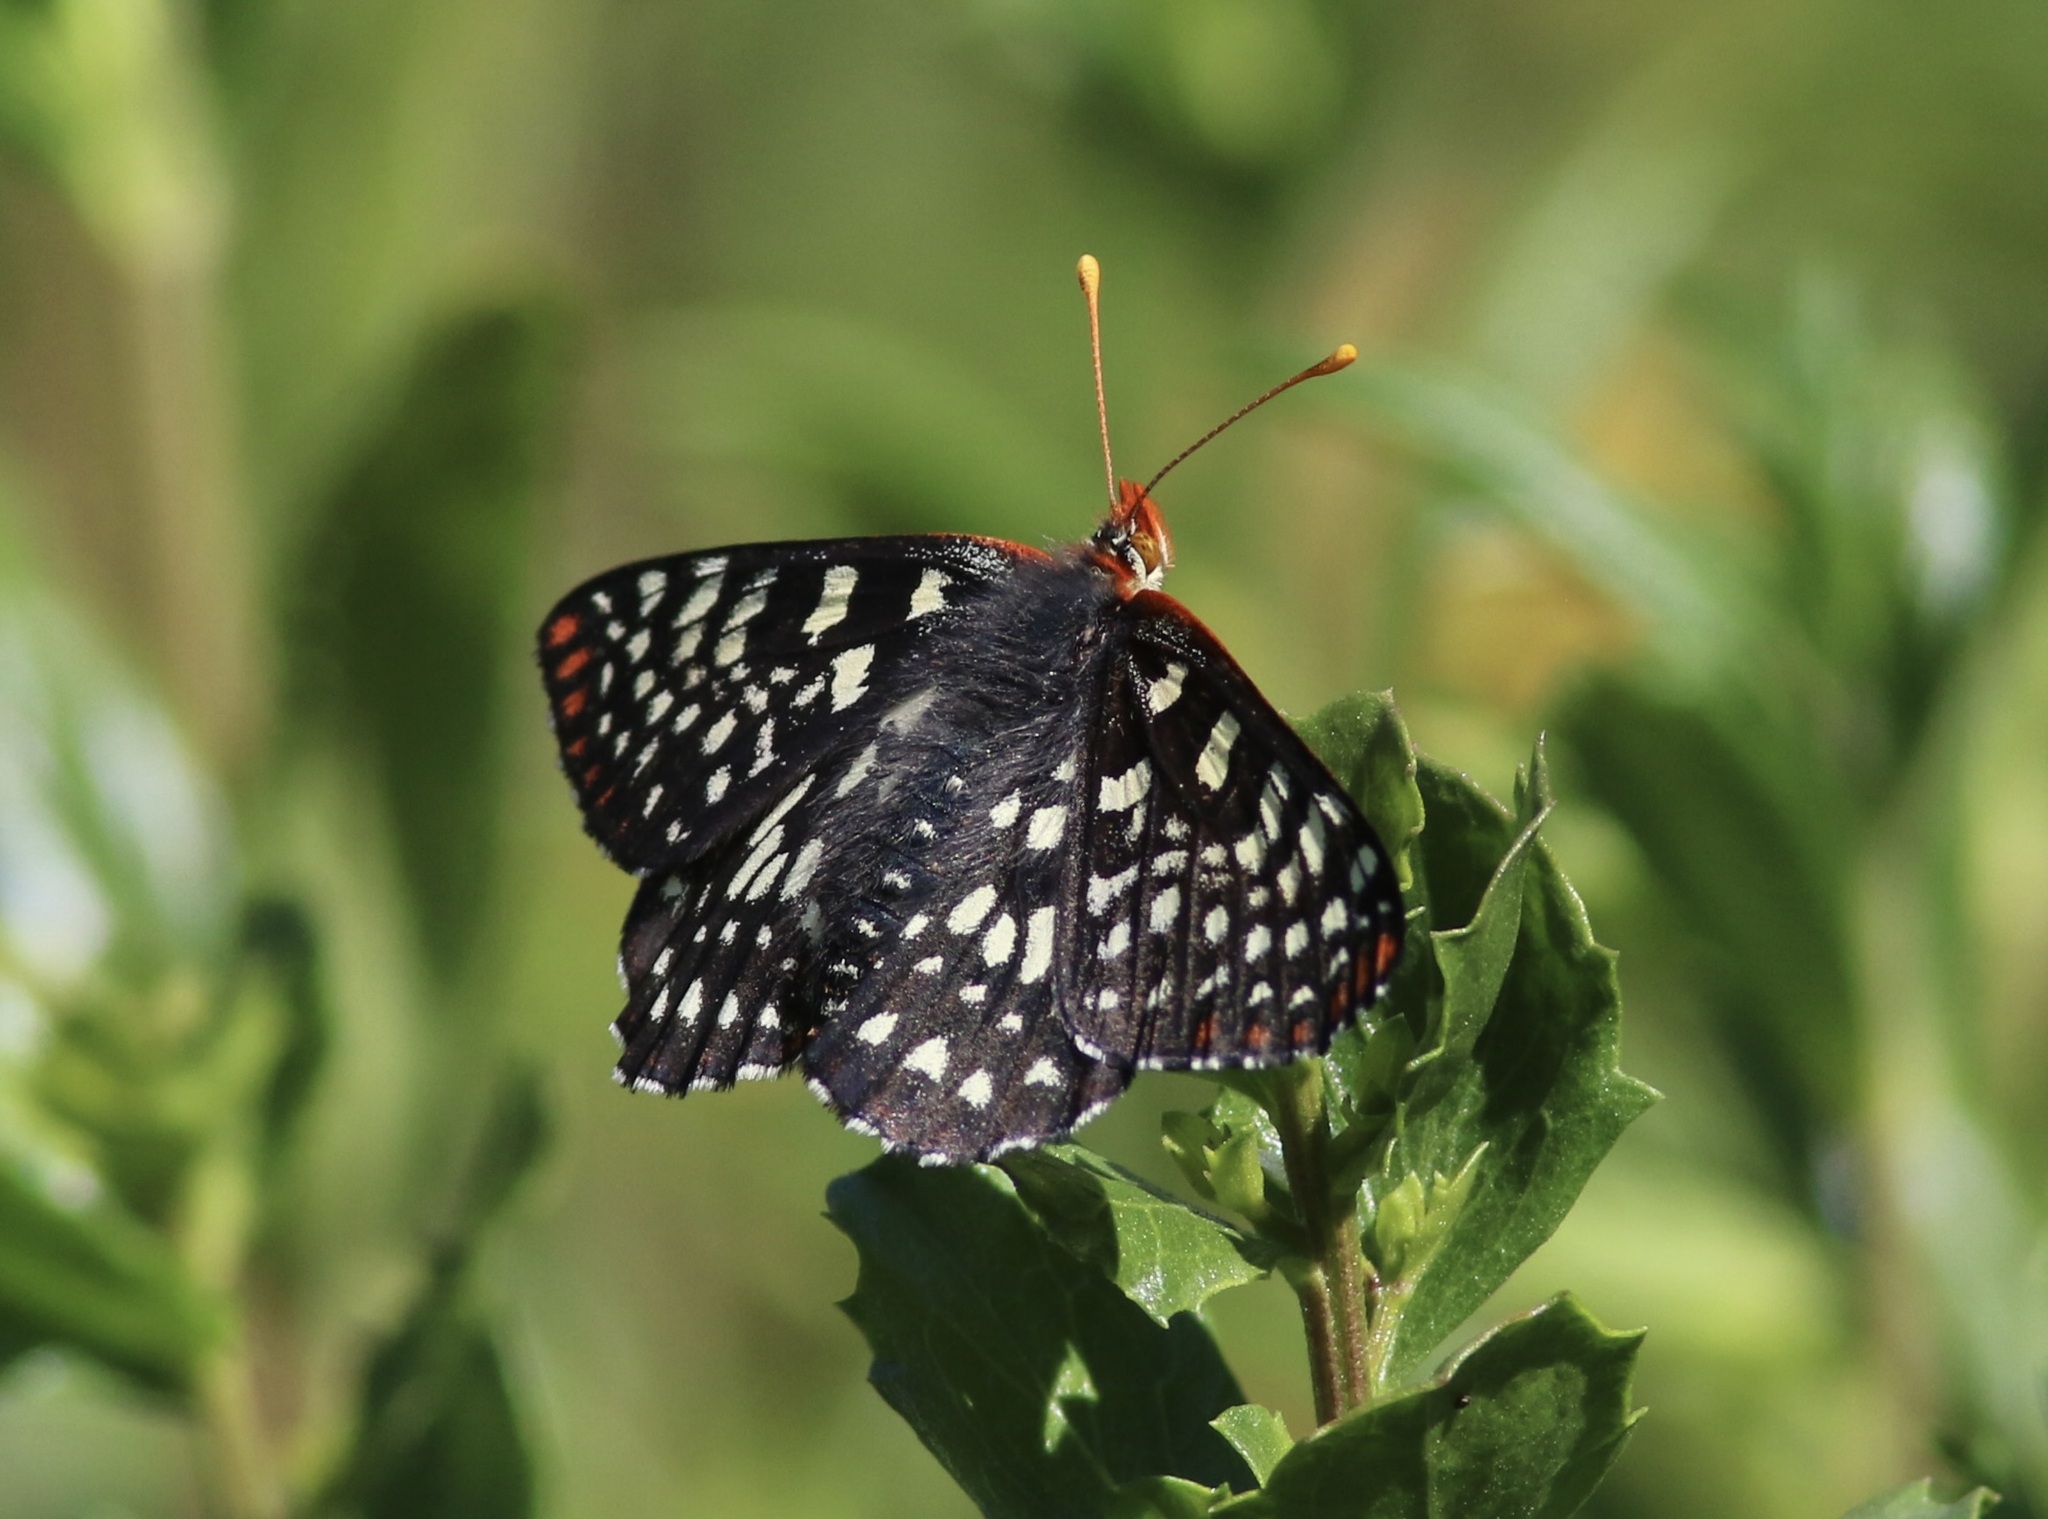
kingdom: Animalia
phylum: Arthropoda
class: Insecta
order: Lepidoptera
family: Nymphalidae
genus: Occidryas
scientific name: Occidryas chalcedona
